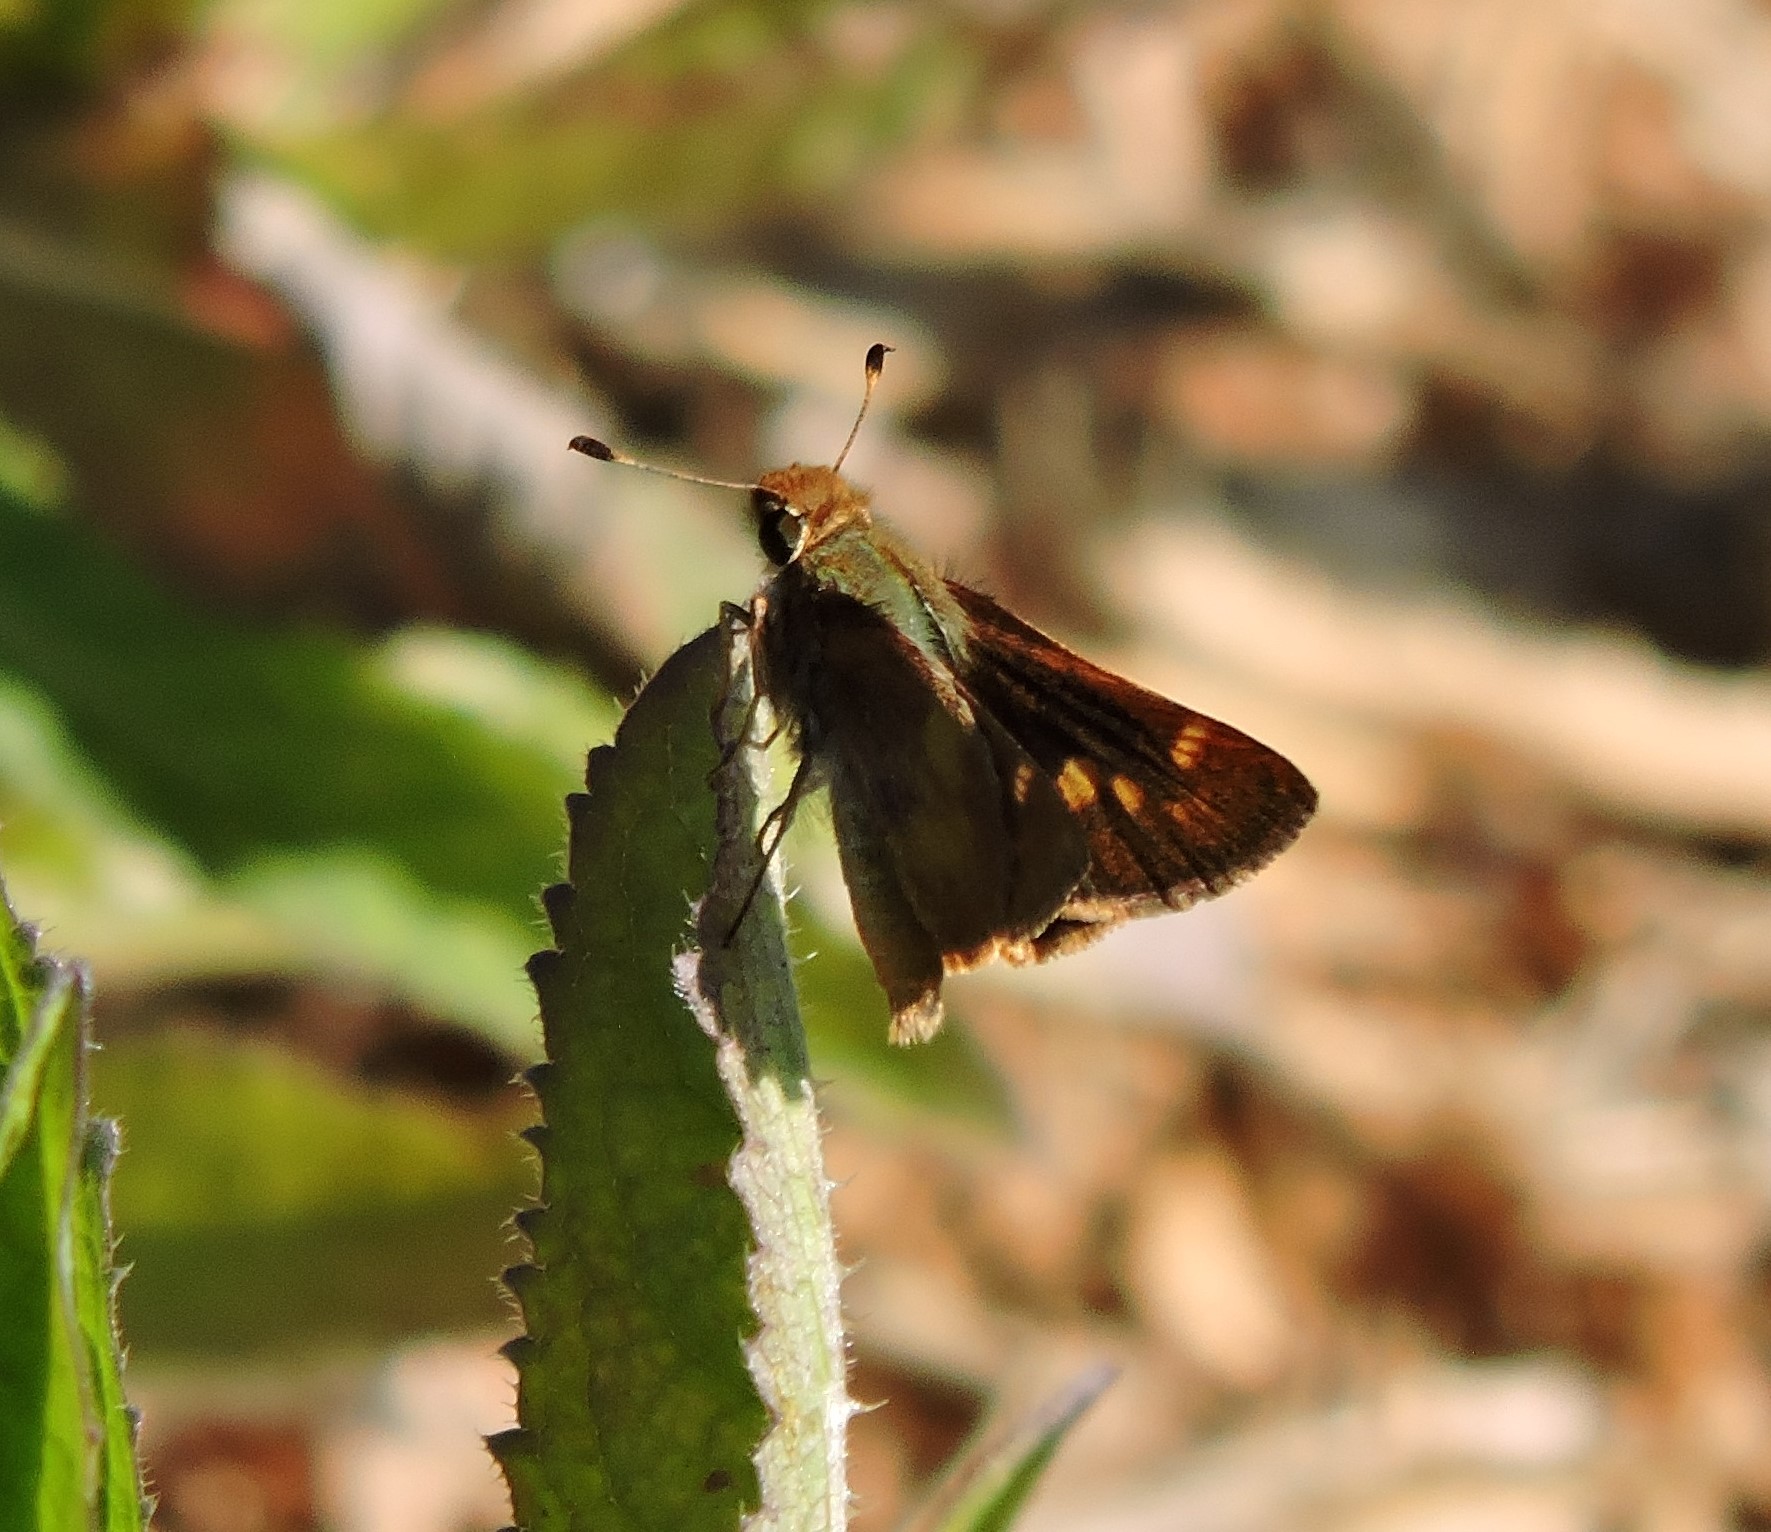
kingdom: Animalia
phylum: Arthropoda
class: Insecta
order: Lepidoptera
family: Hesperiidae
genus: Lon
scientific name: Lon melane
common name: Umber skipper
